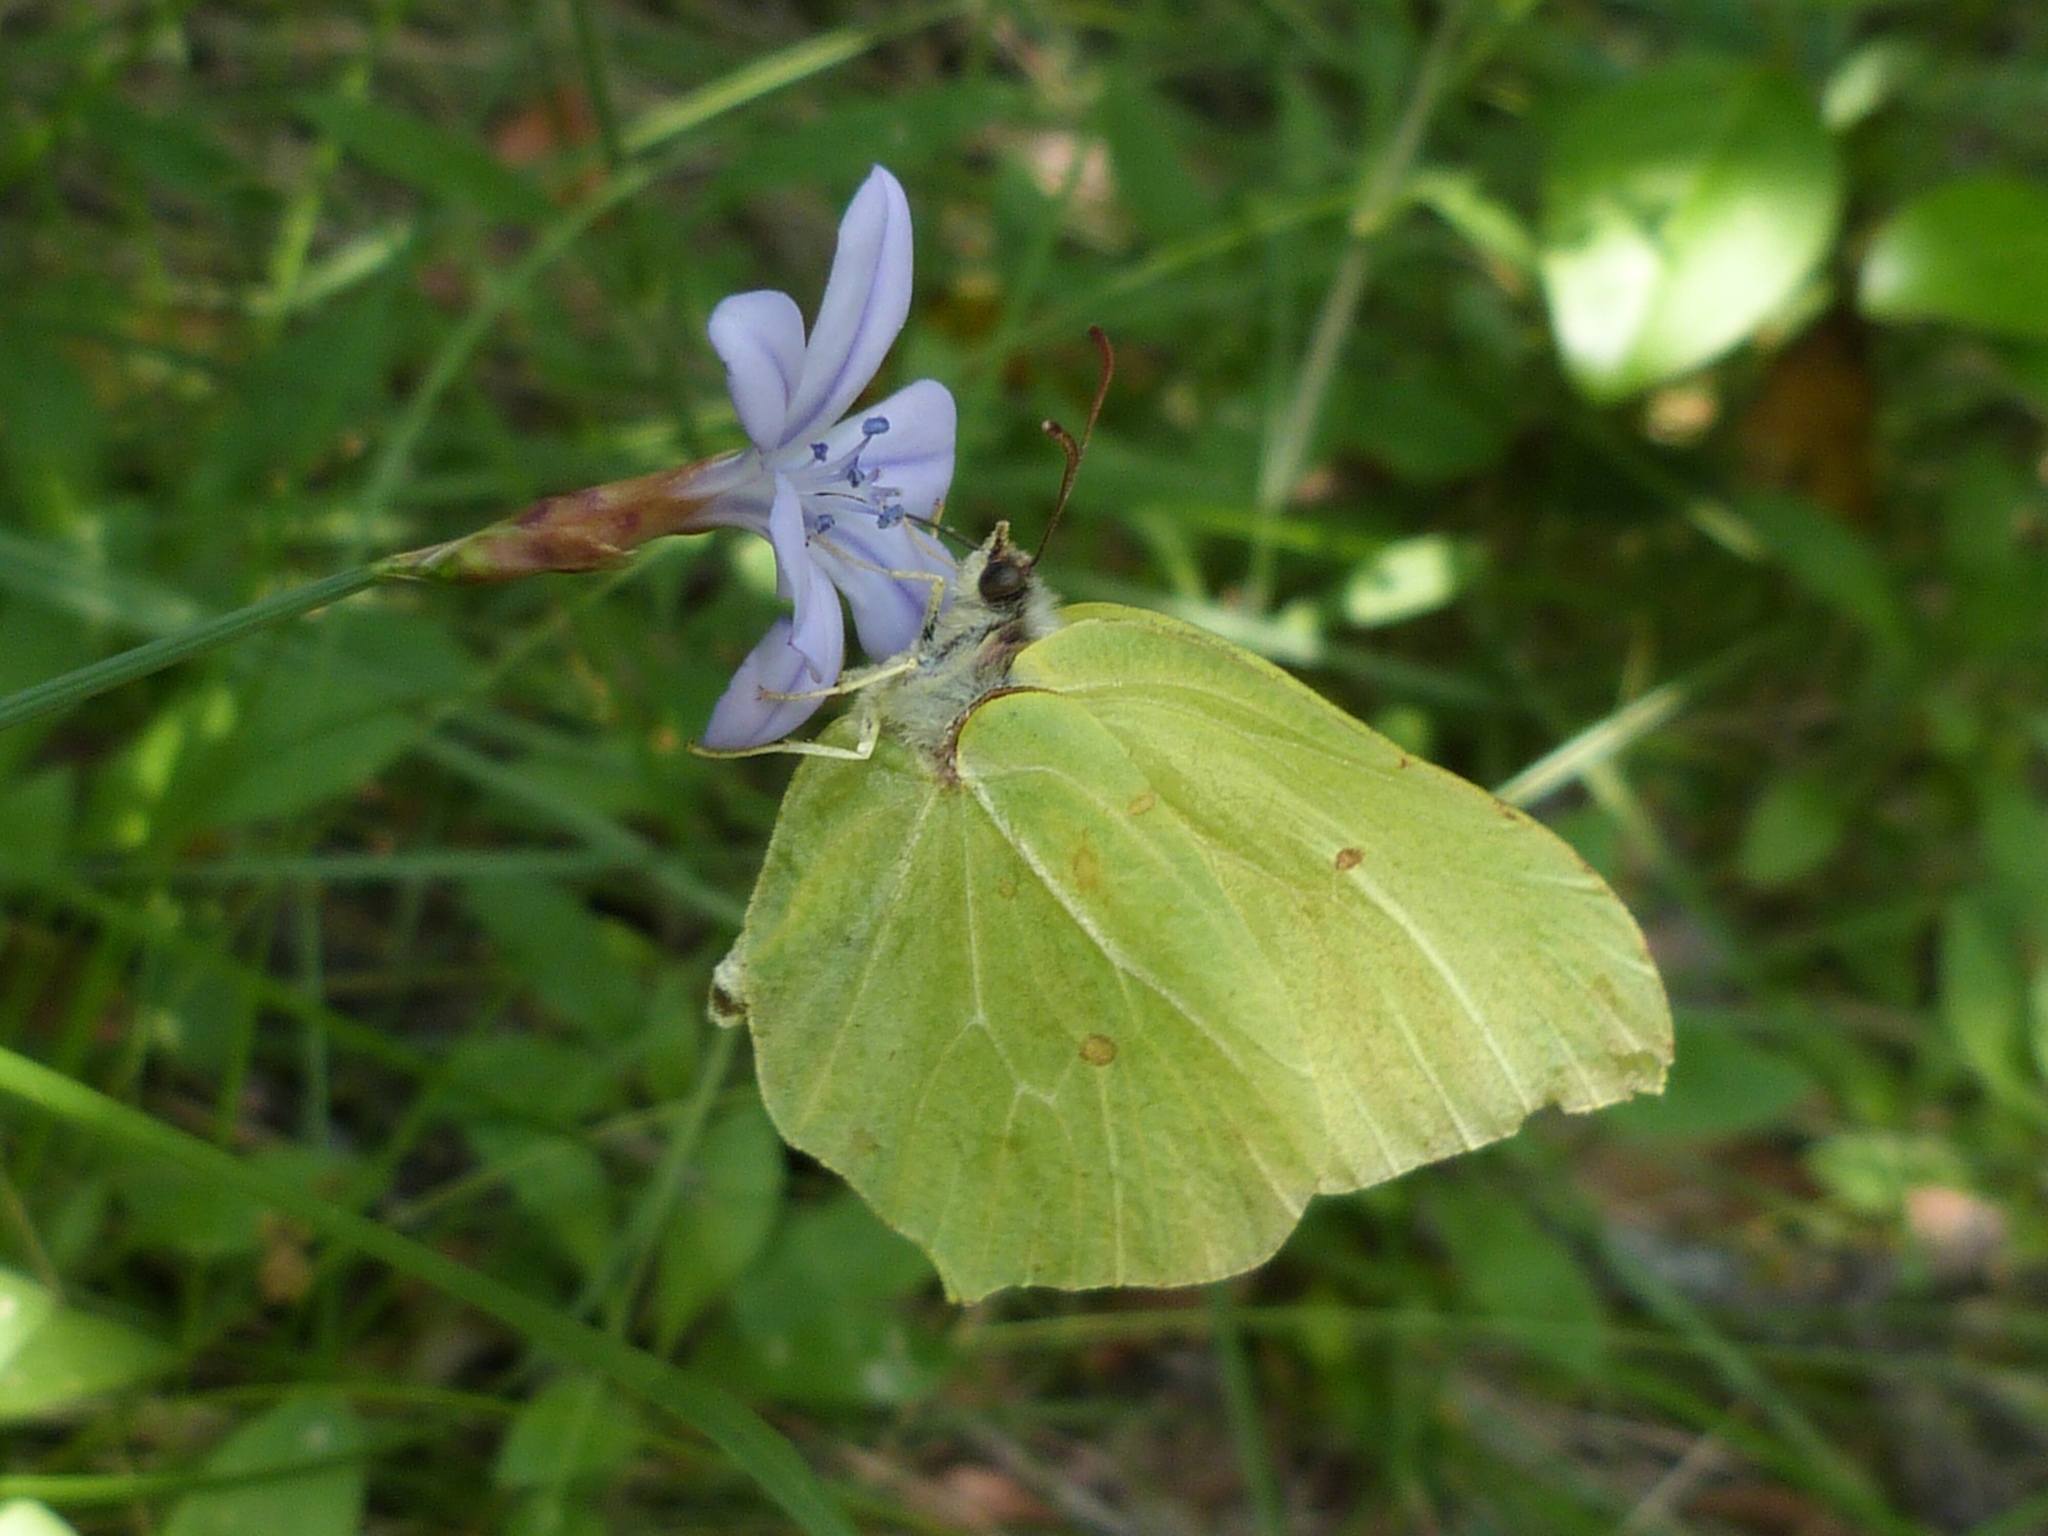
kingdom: Animalia
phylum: Arthropoda
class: Insecta
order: Lepidoptera
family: Pieridae
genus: Gonepteryx
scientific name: Gonepteryx rhamni
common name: Brimstone
